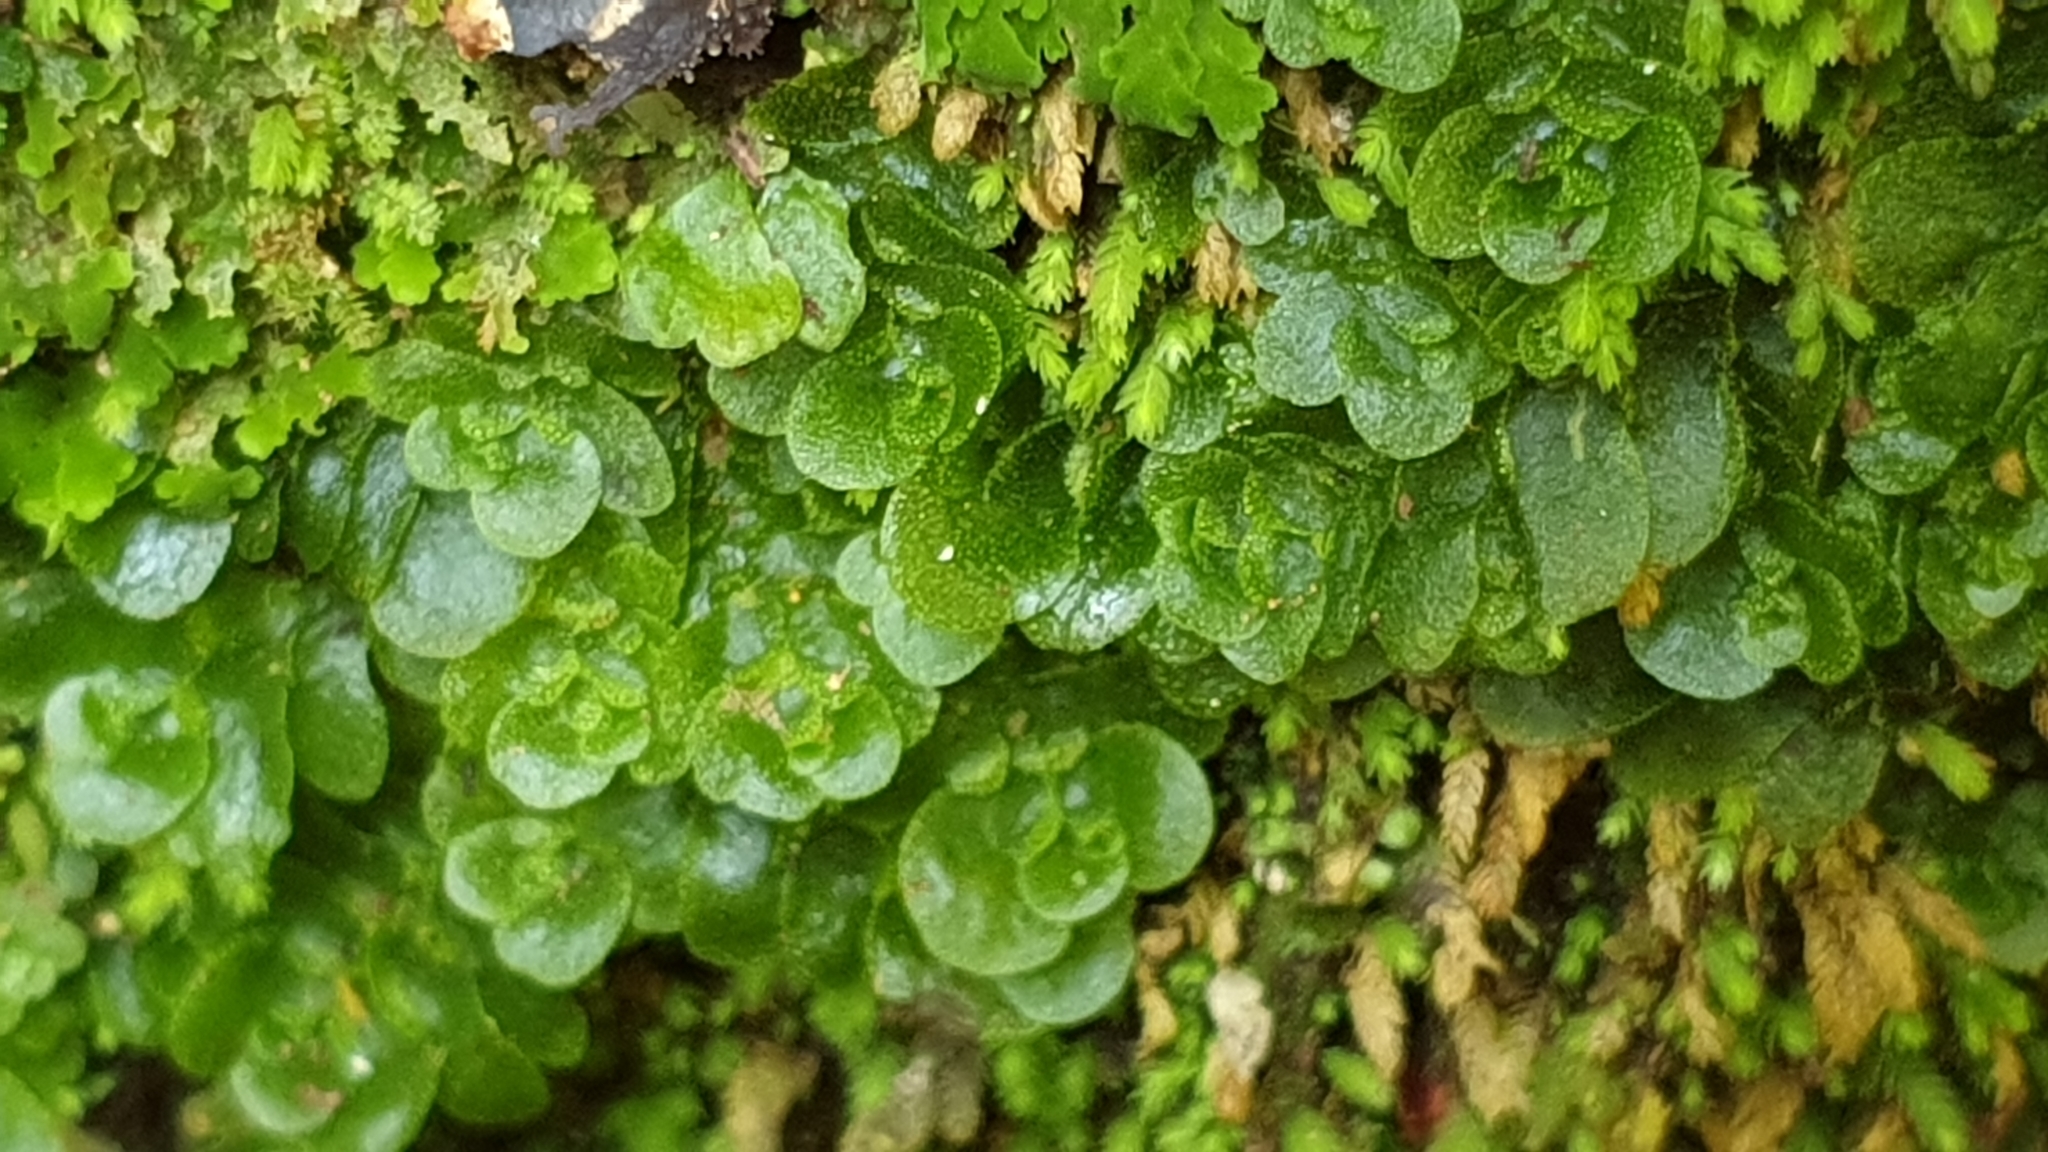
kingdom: Plantae
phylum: Marchantiophyta
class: Haplomitriopsida
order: Treubiales
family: Treubiaceae
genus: Treubia
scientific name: Treubia lacunosa
